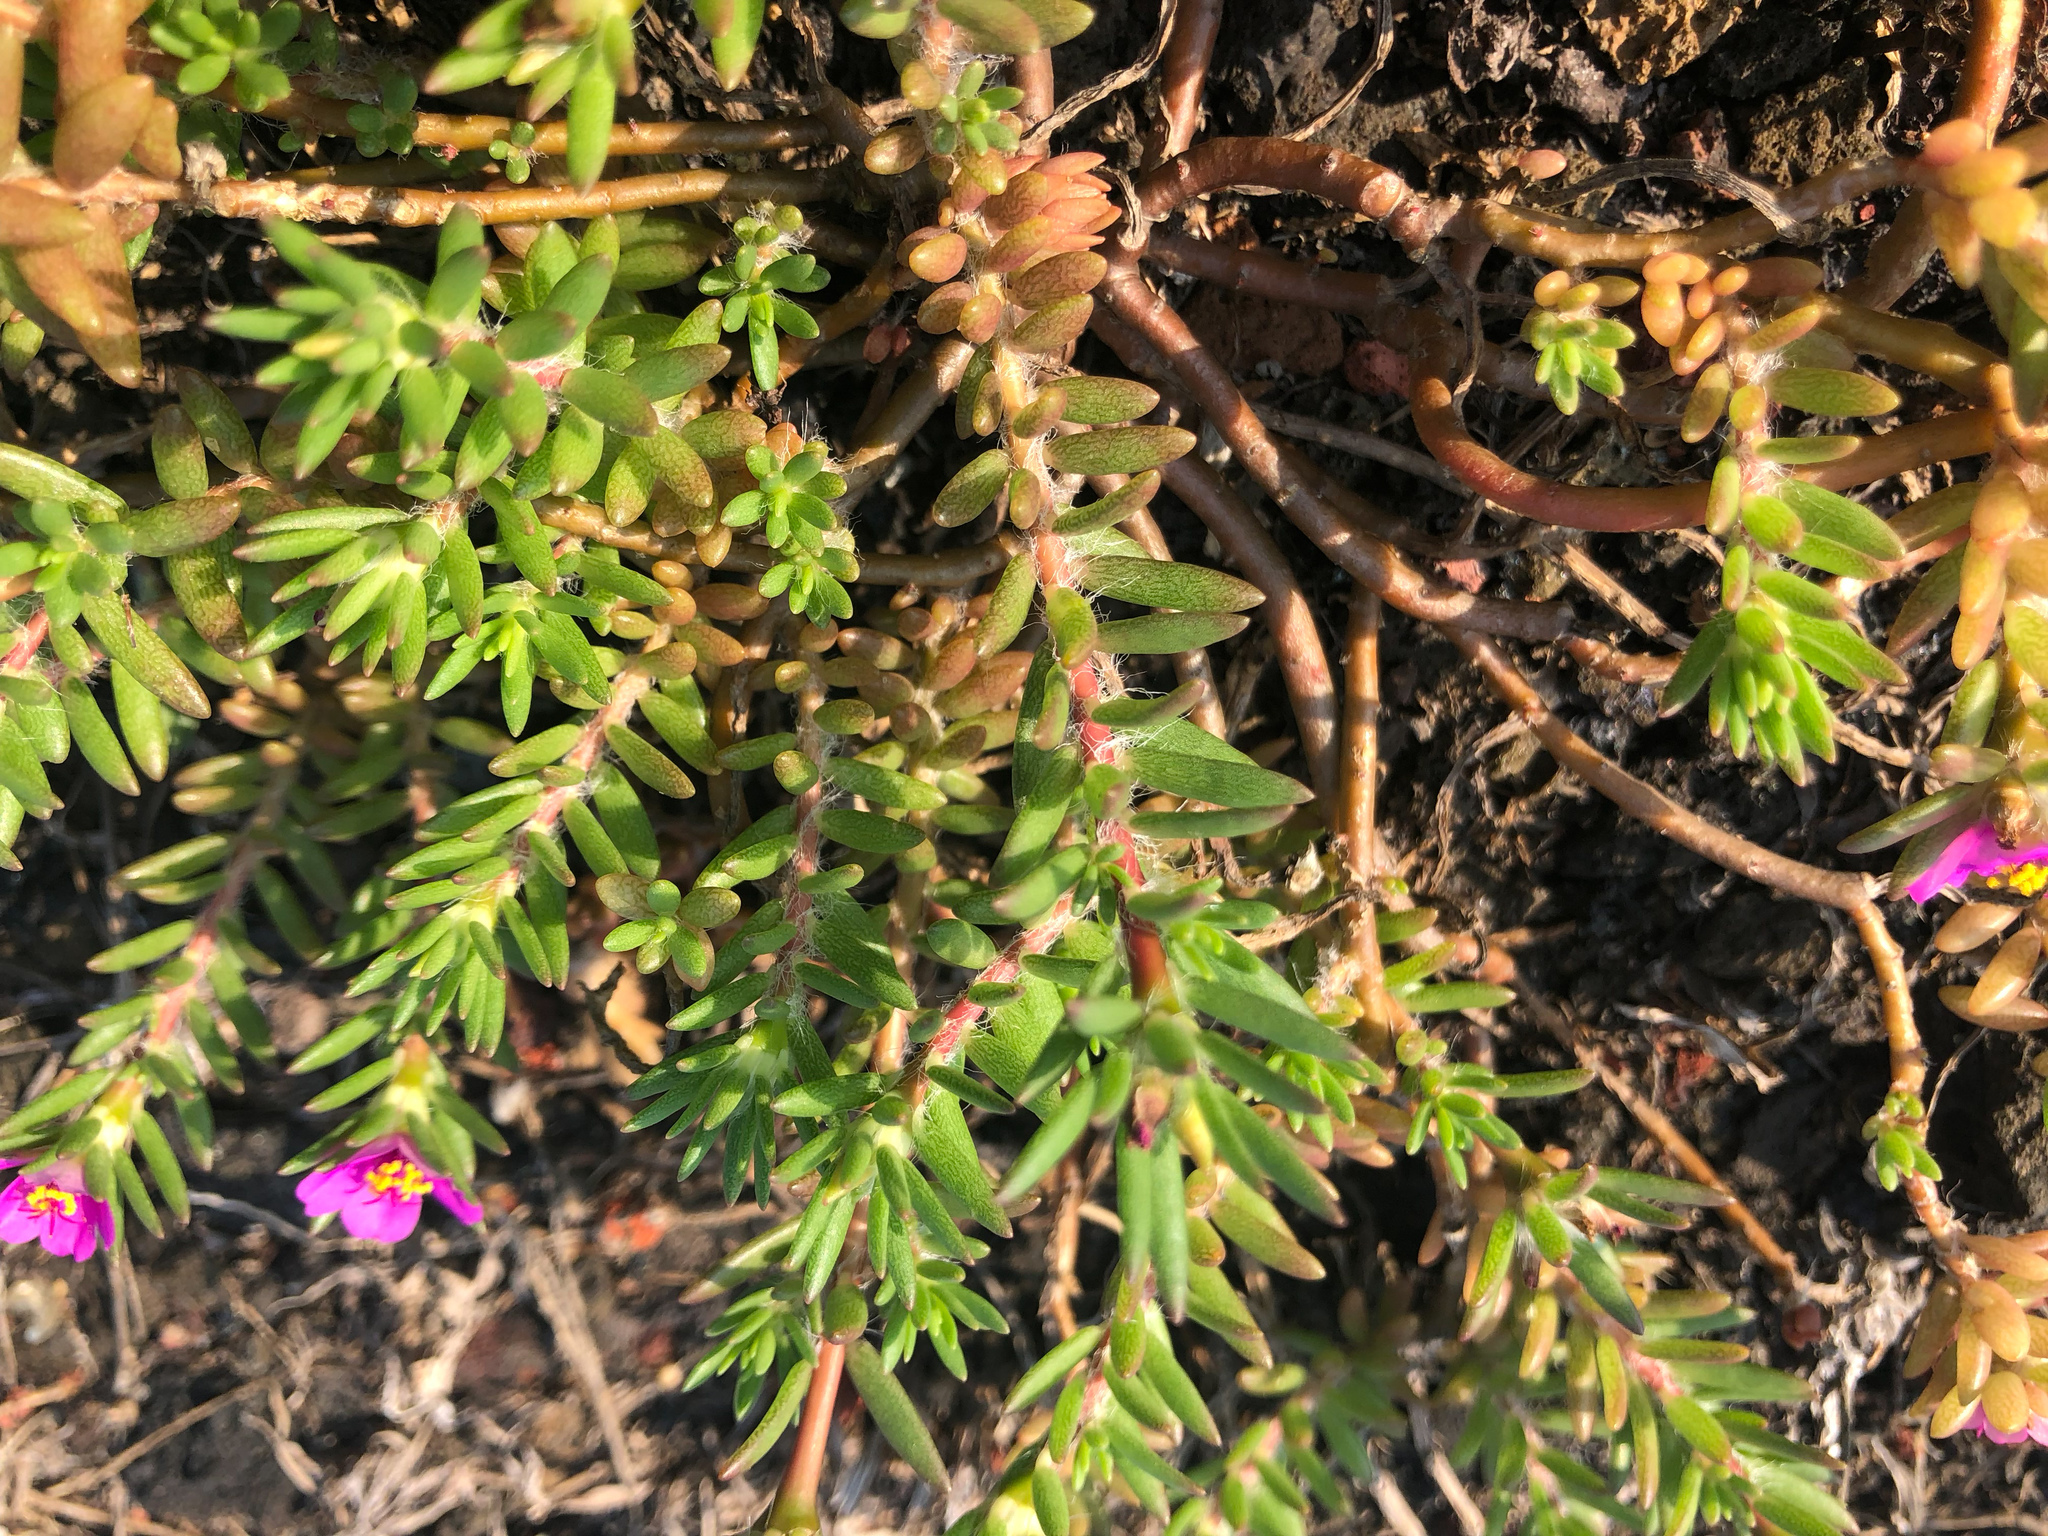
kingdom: Plantae
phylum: Tracheophyta
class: Magnoliopsida
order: Caryophyllales
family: Portulacaceae
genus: Portulaca
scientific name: Portulaca pilosa
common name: Kiss me quick
